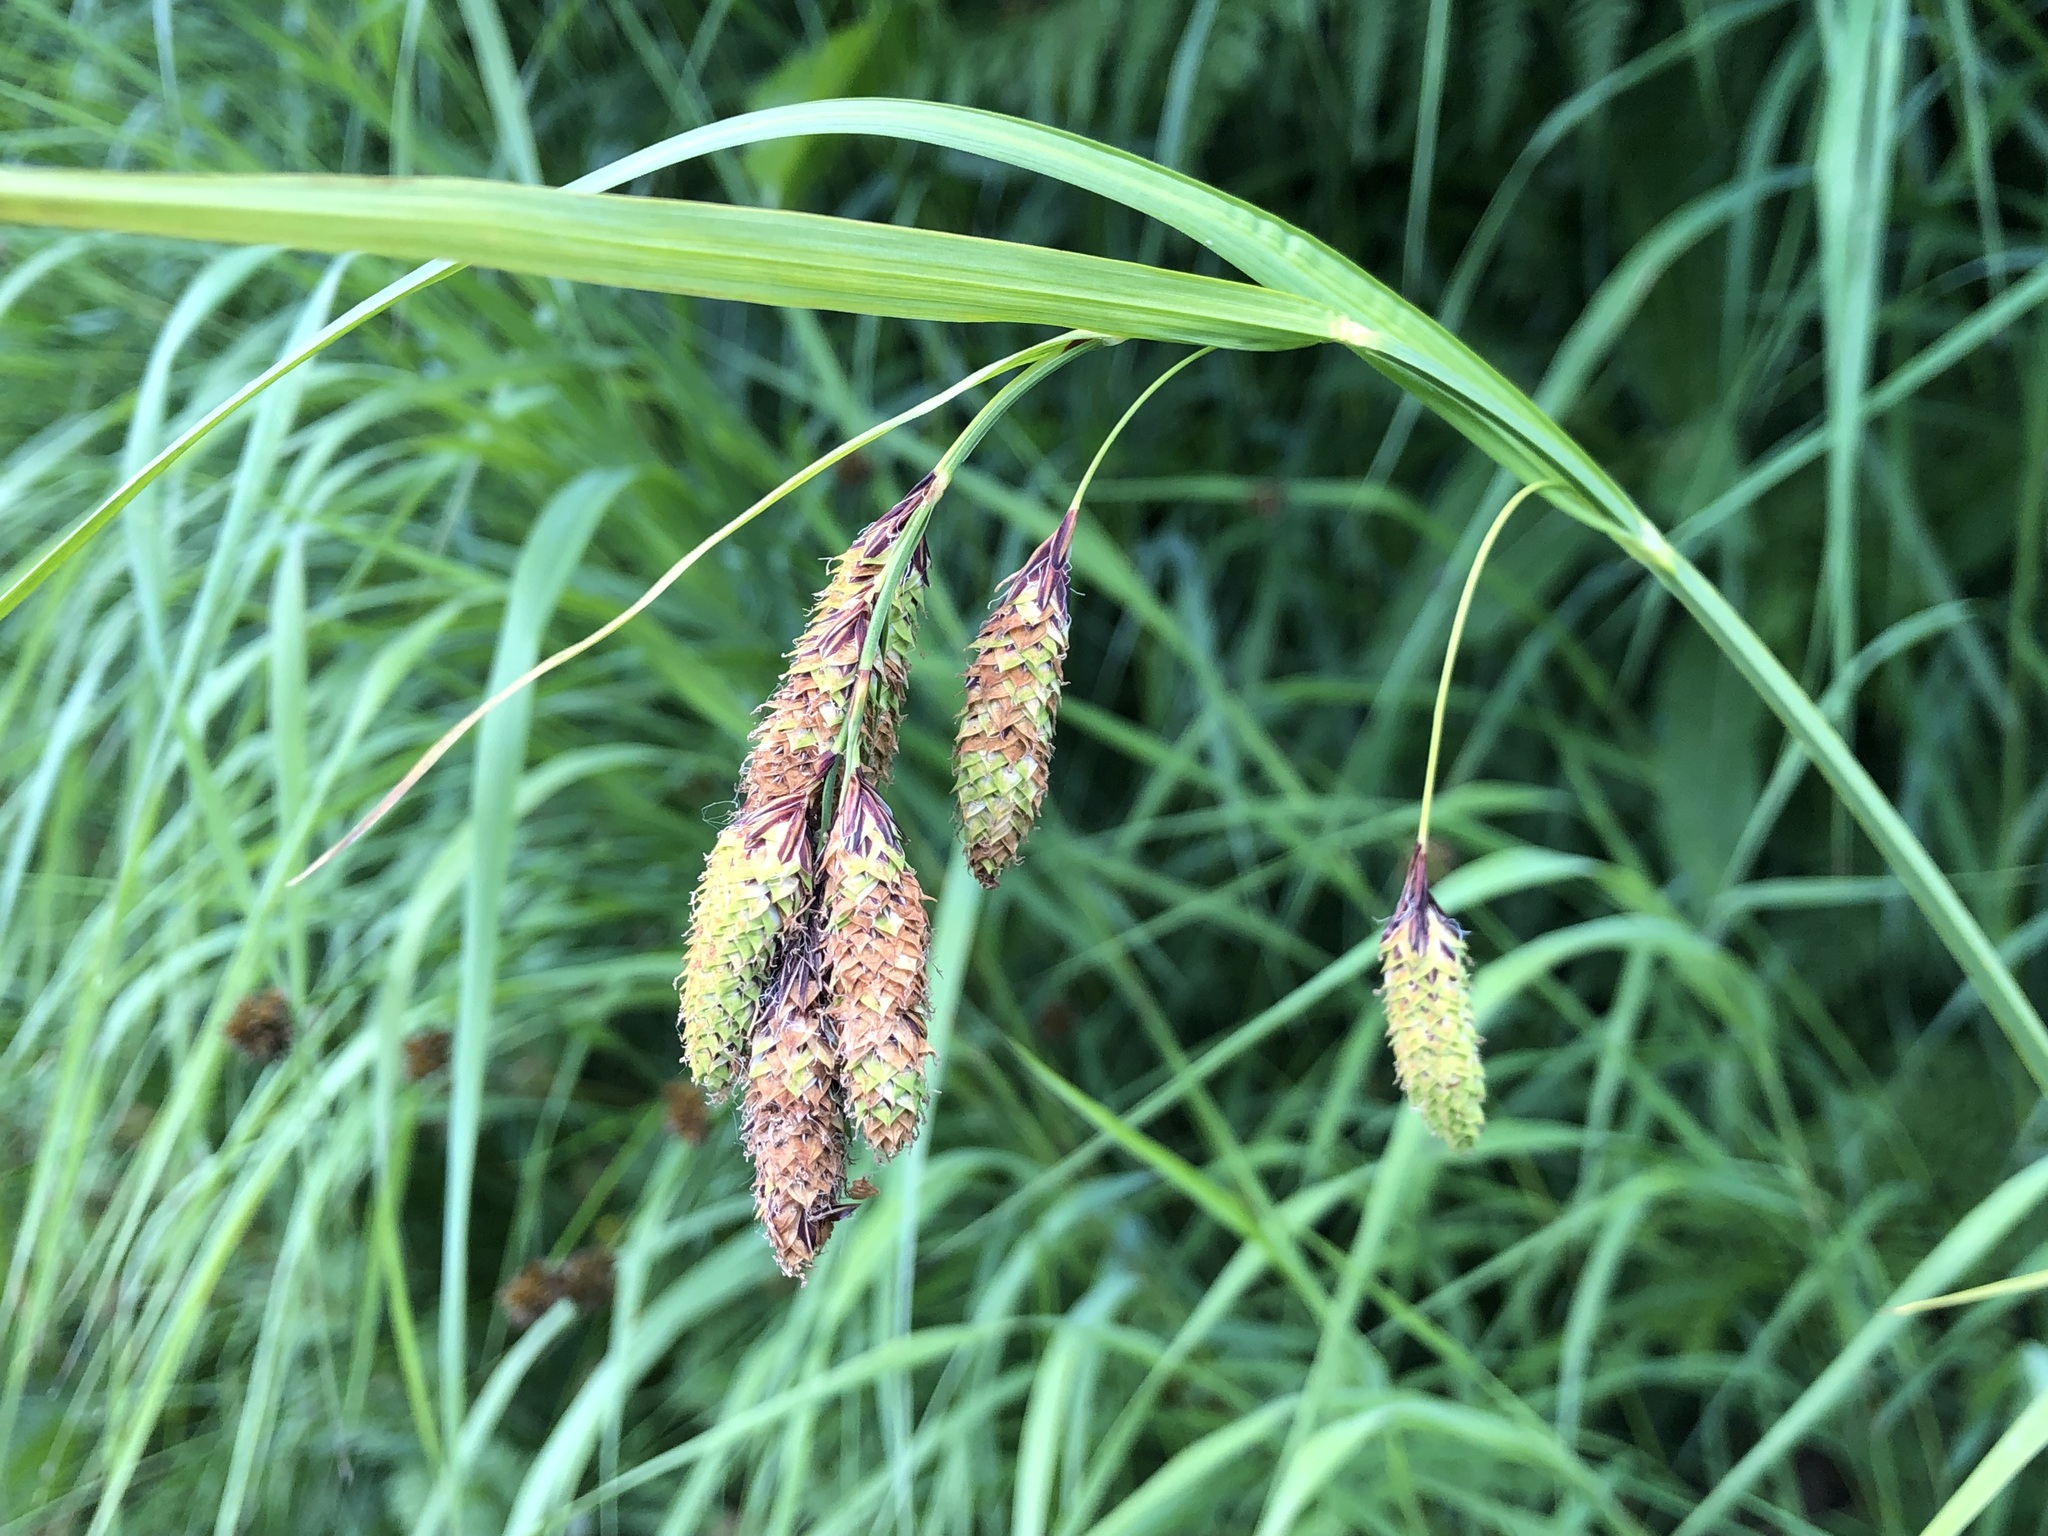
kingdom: Plantae
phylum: Tracheophyta
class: Liliopsida
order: Poales
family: Cyperaceae
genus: Carex
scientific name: Carex mertensii
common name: Mertens' sedge
